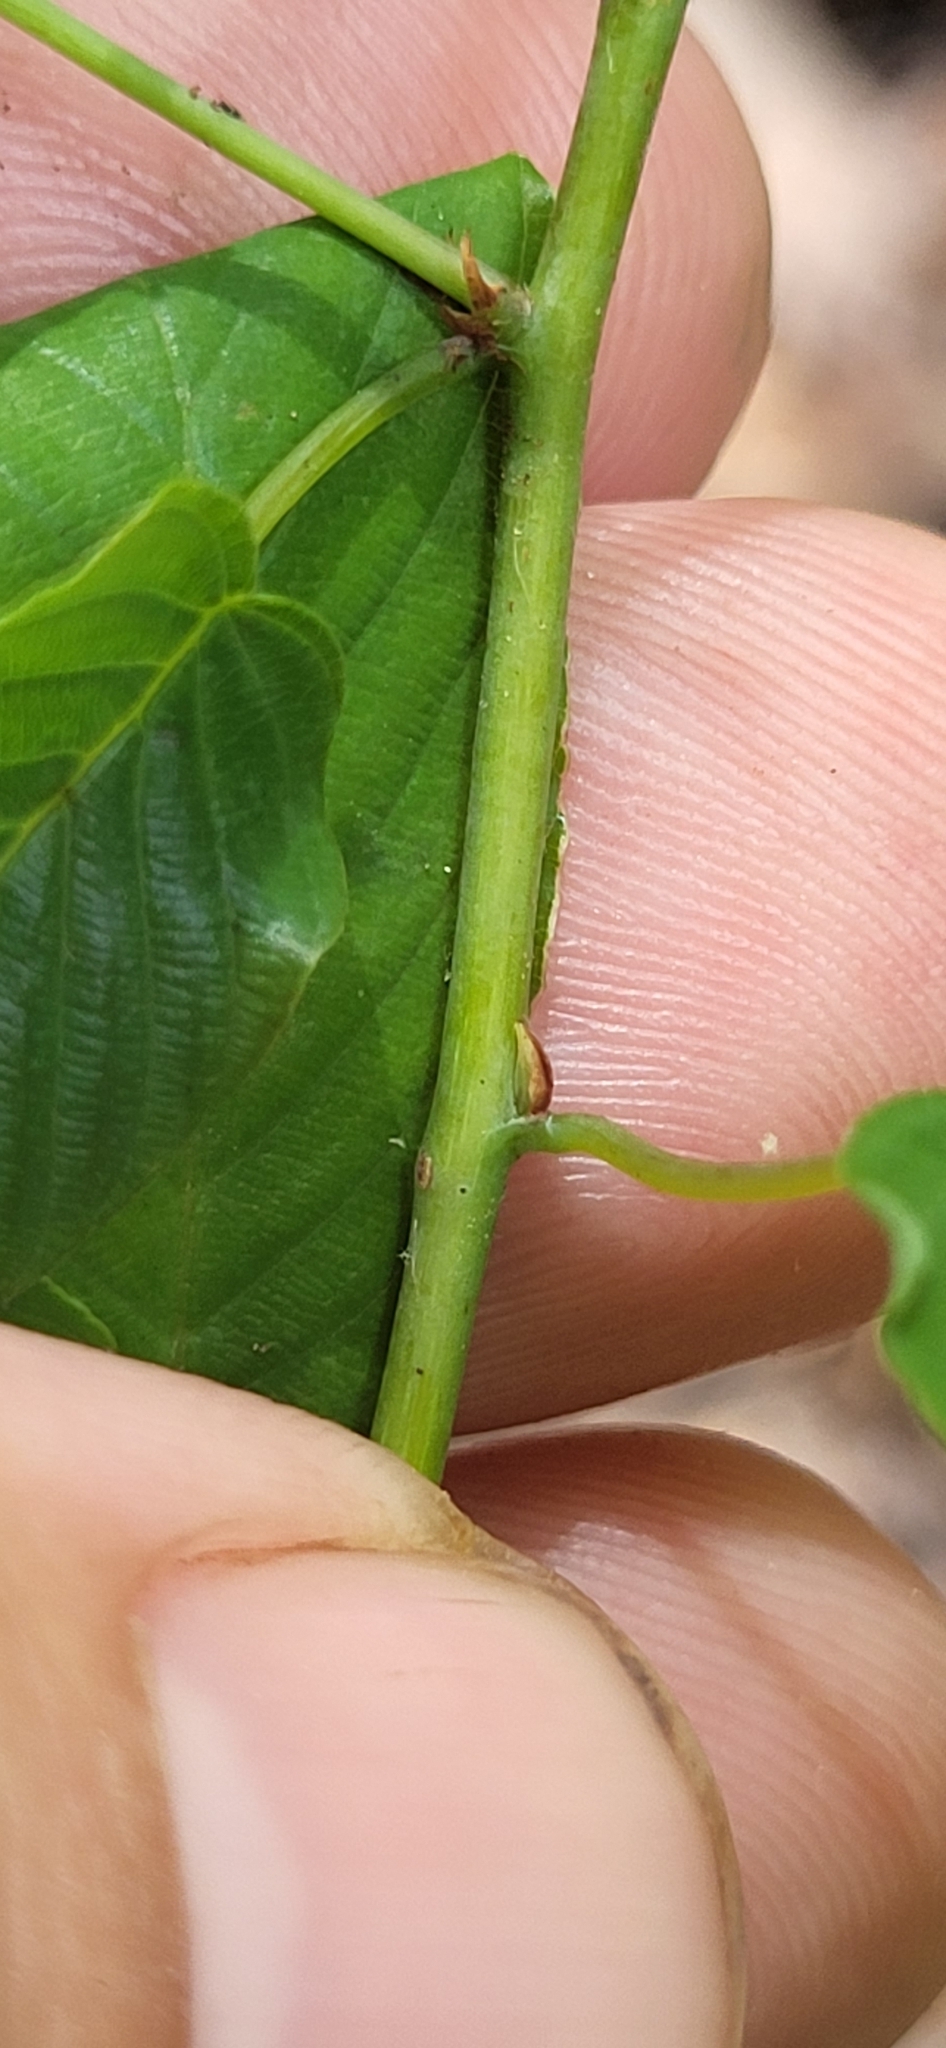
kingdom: Plantae
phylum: Tracheophyta
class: Magnoliopsida
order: Rosales
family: Rhamnaceae
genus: Berchemia
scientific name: Berchemia scandens
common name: Supplejack
